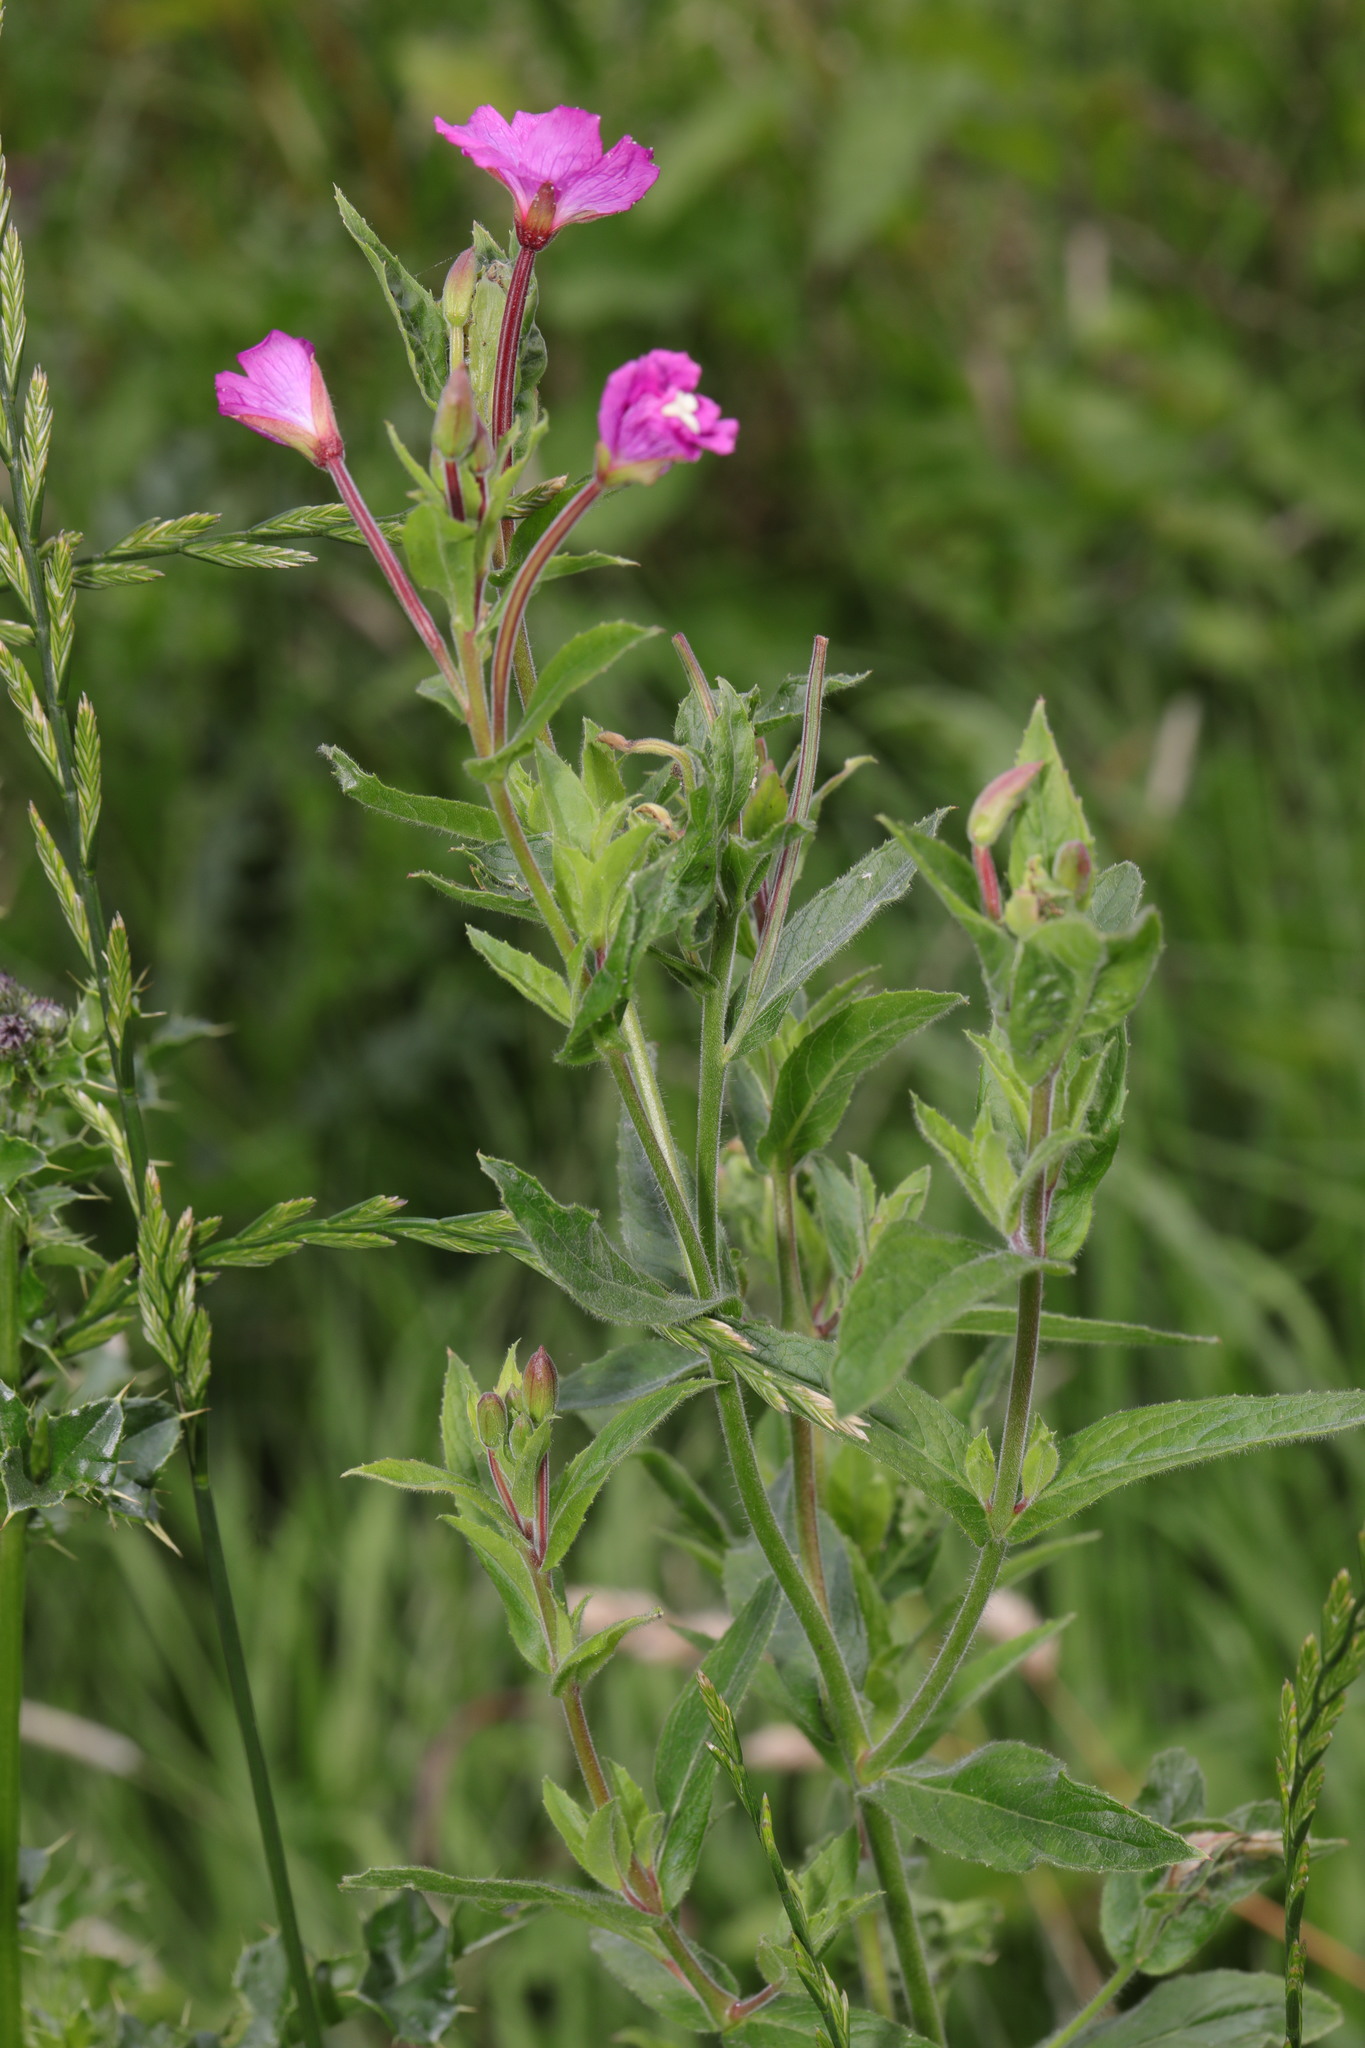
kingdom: Plantae
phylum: Tracheophyta
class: Magnoliopsida
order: Myrtales
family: Onagraceae
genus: Epilobium
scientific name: Epilobium hirsutum
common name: Great willowherb
